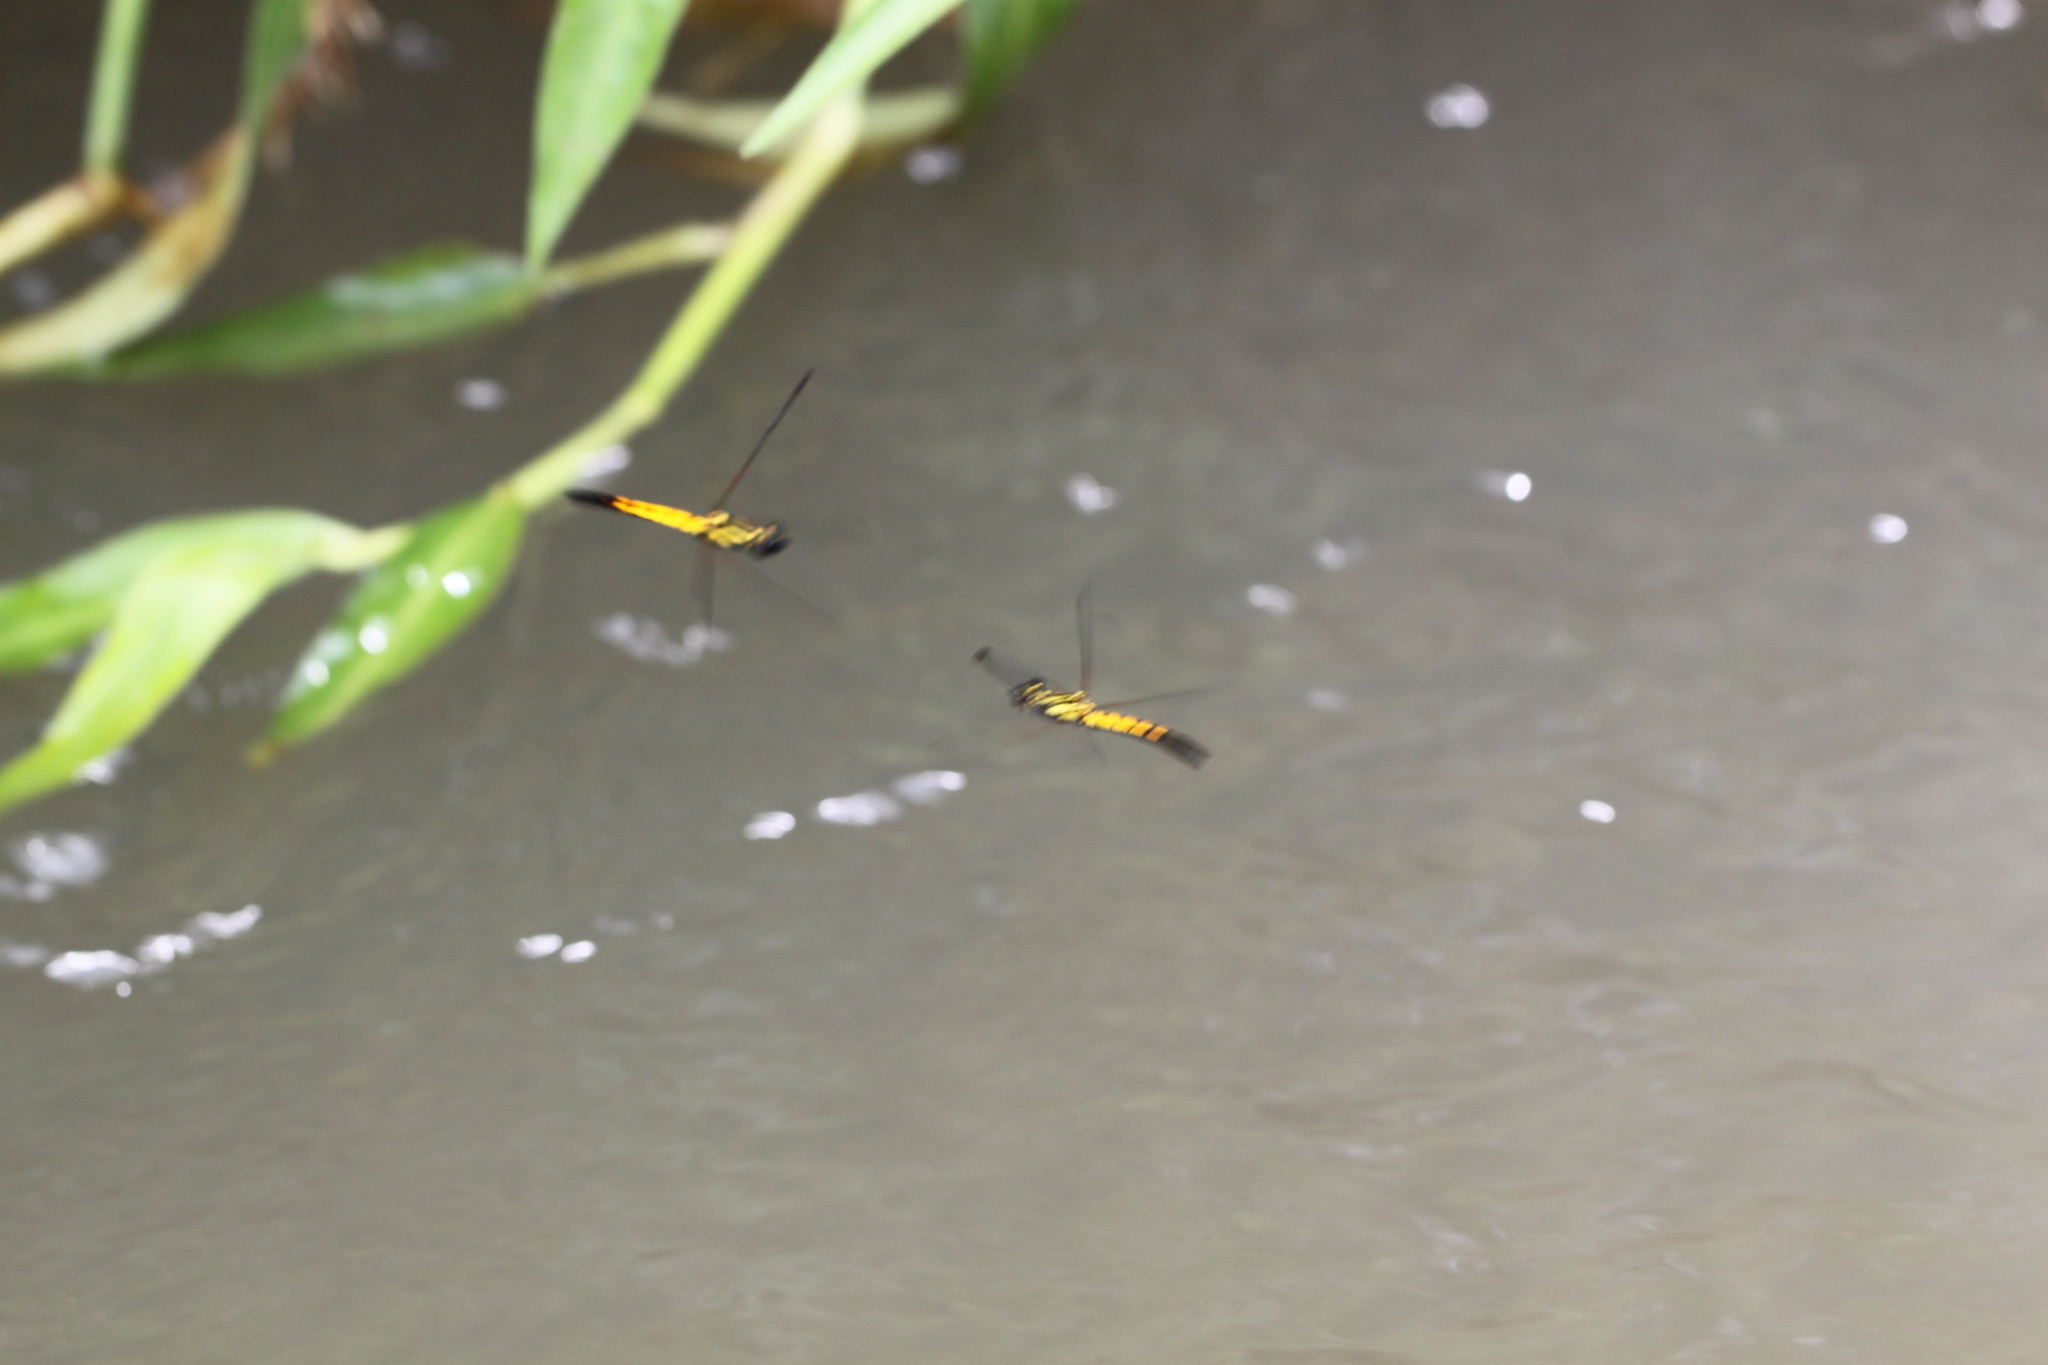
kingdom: Animalia
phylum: Arthropoda
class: Insecta
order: Odonata
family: Chlorocyphidae
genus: Libellago
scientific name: Libellago lineata
